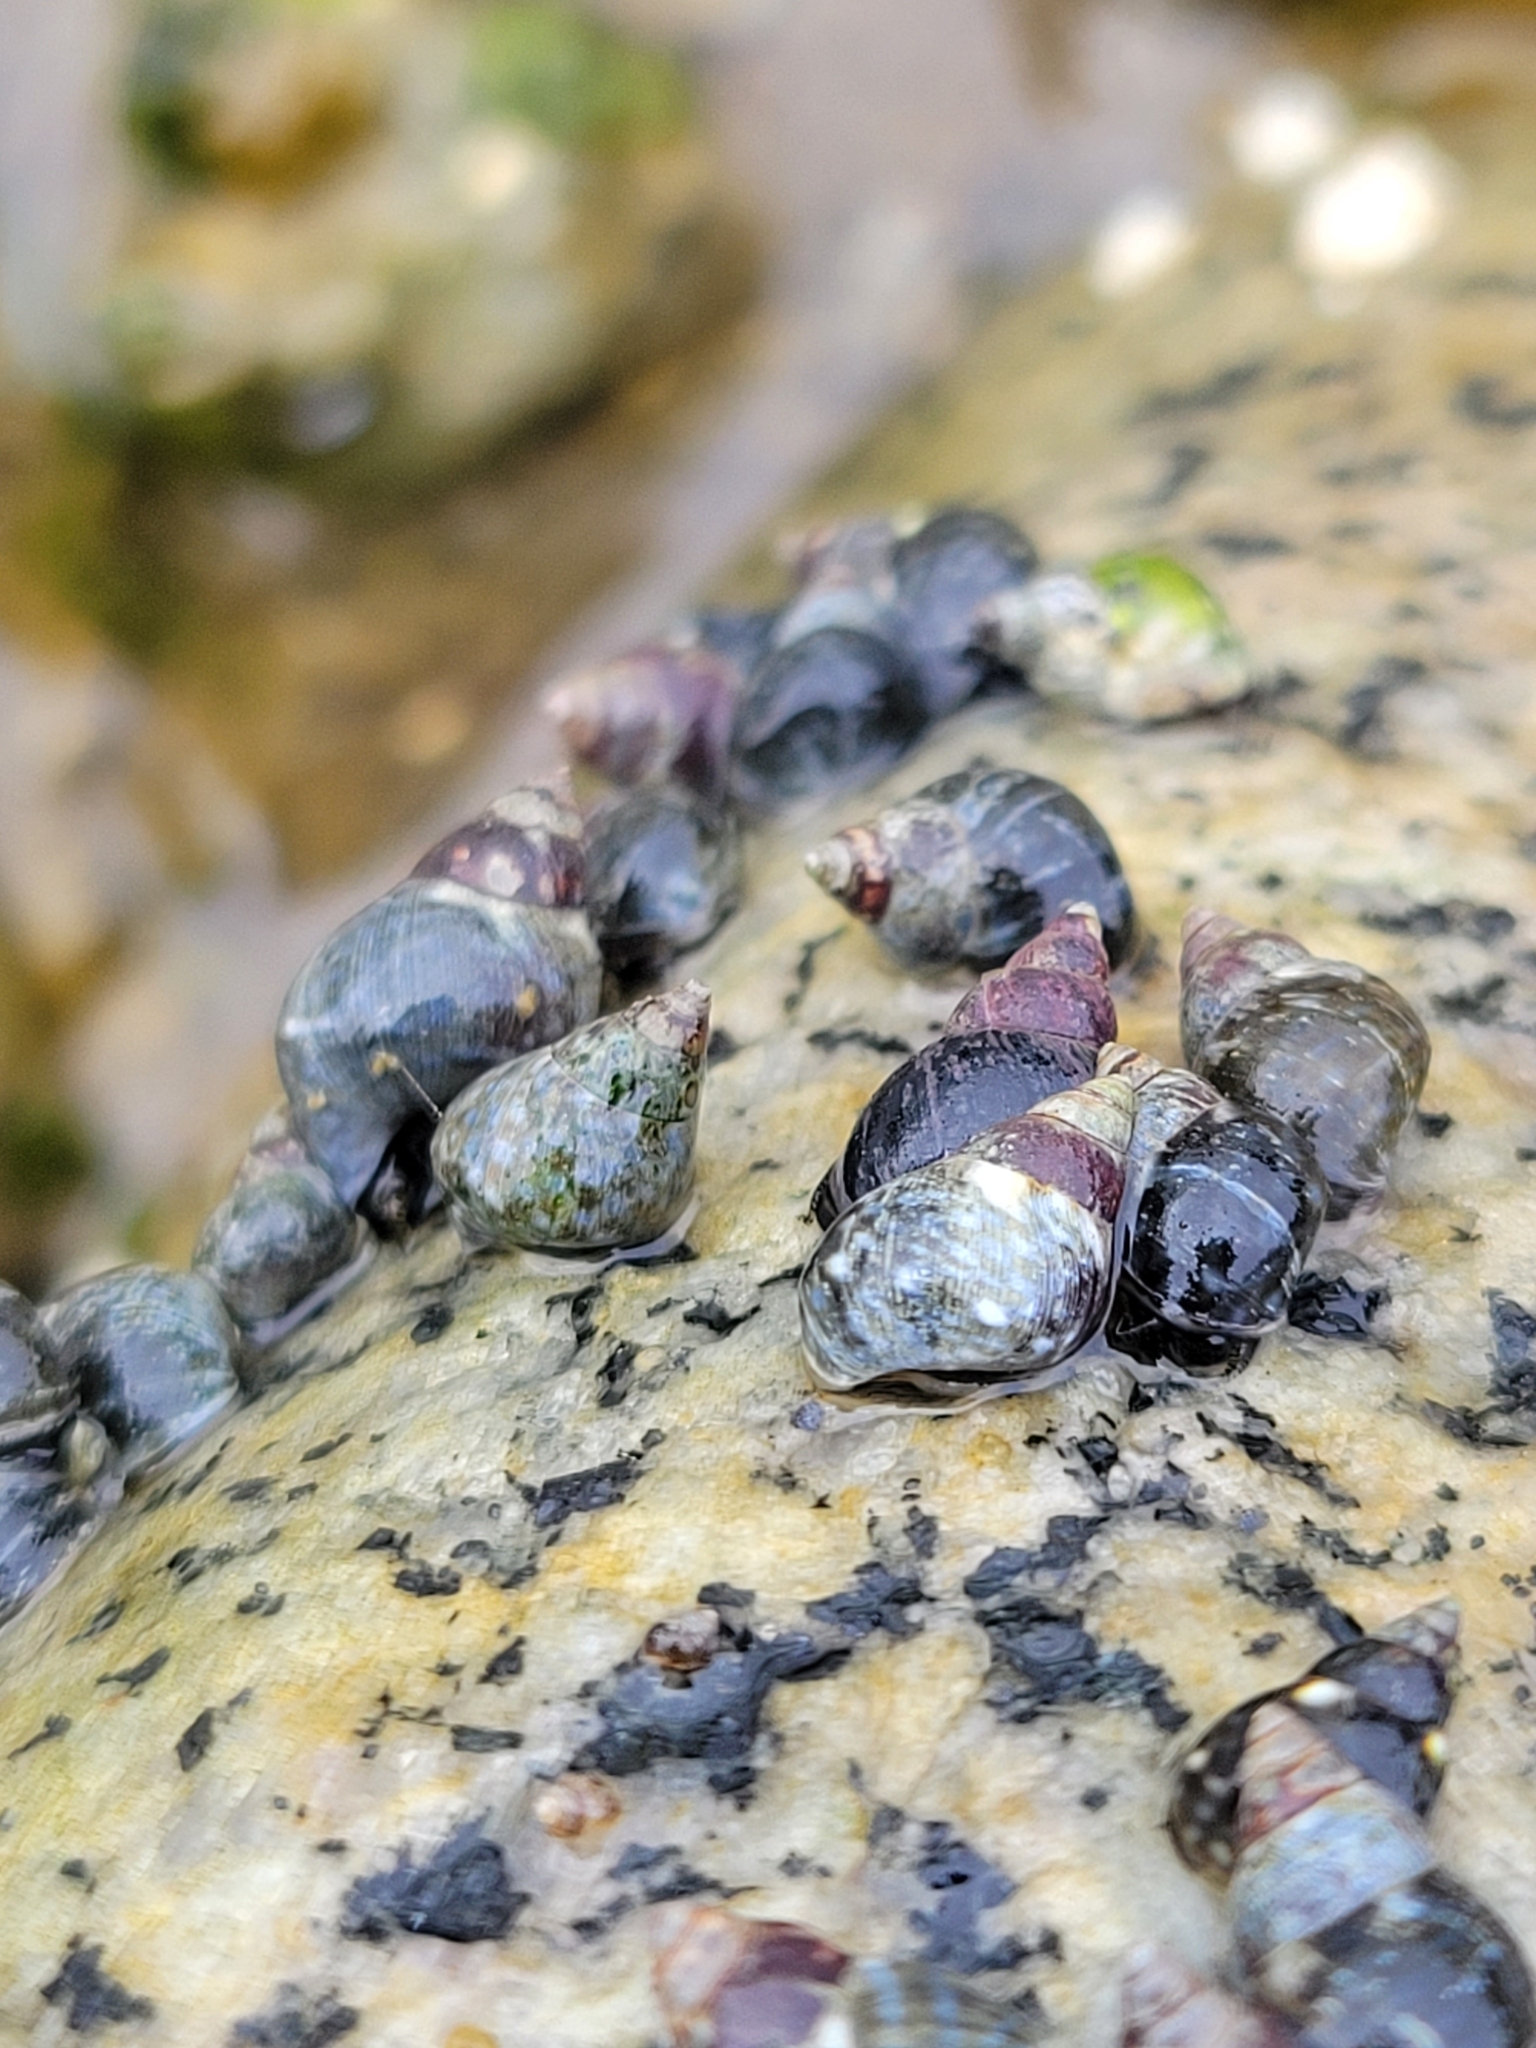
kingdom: Animalia
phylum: Mollusca
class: Gastropoda
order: Littorinimorpha
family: Littorinidae
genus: Littorina
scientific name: Littorina scutulata
